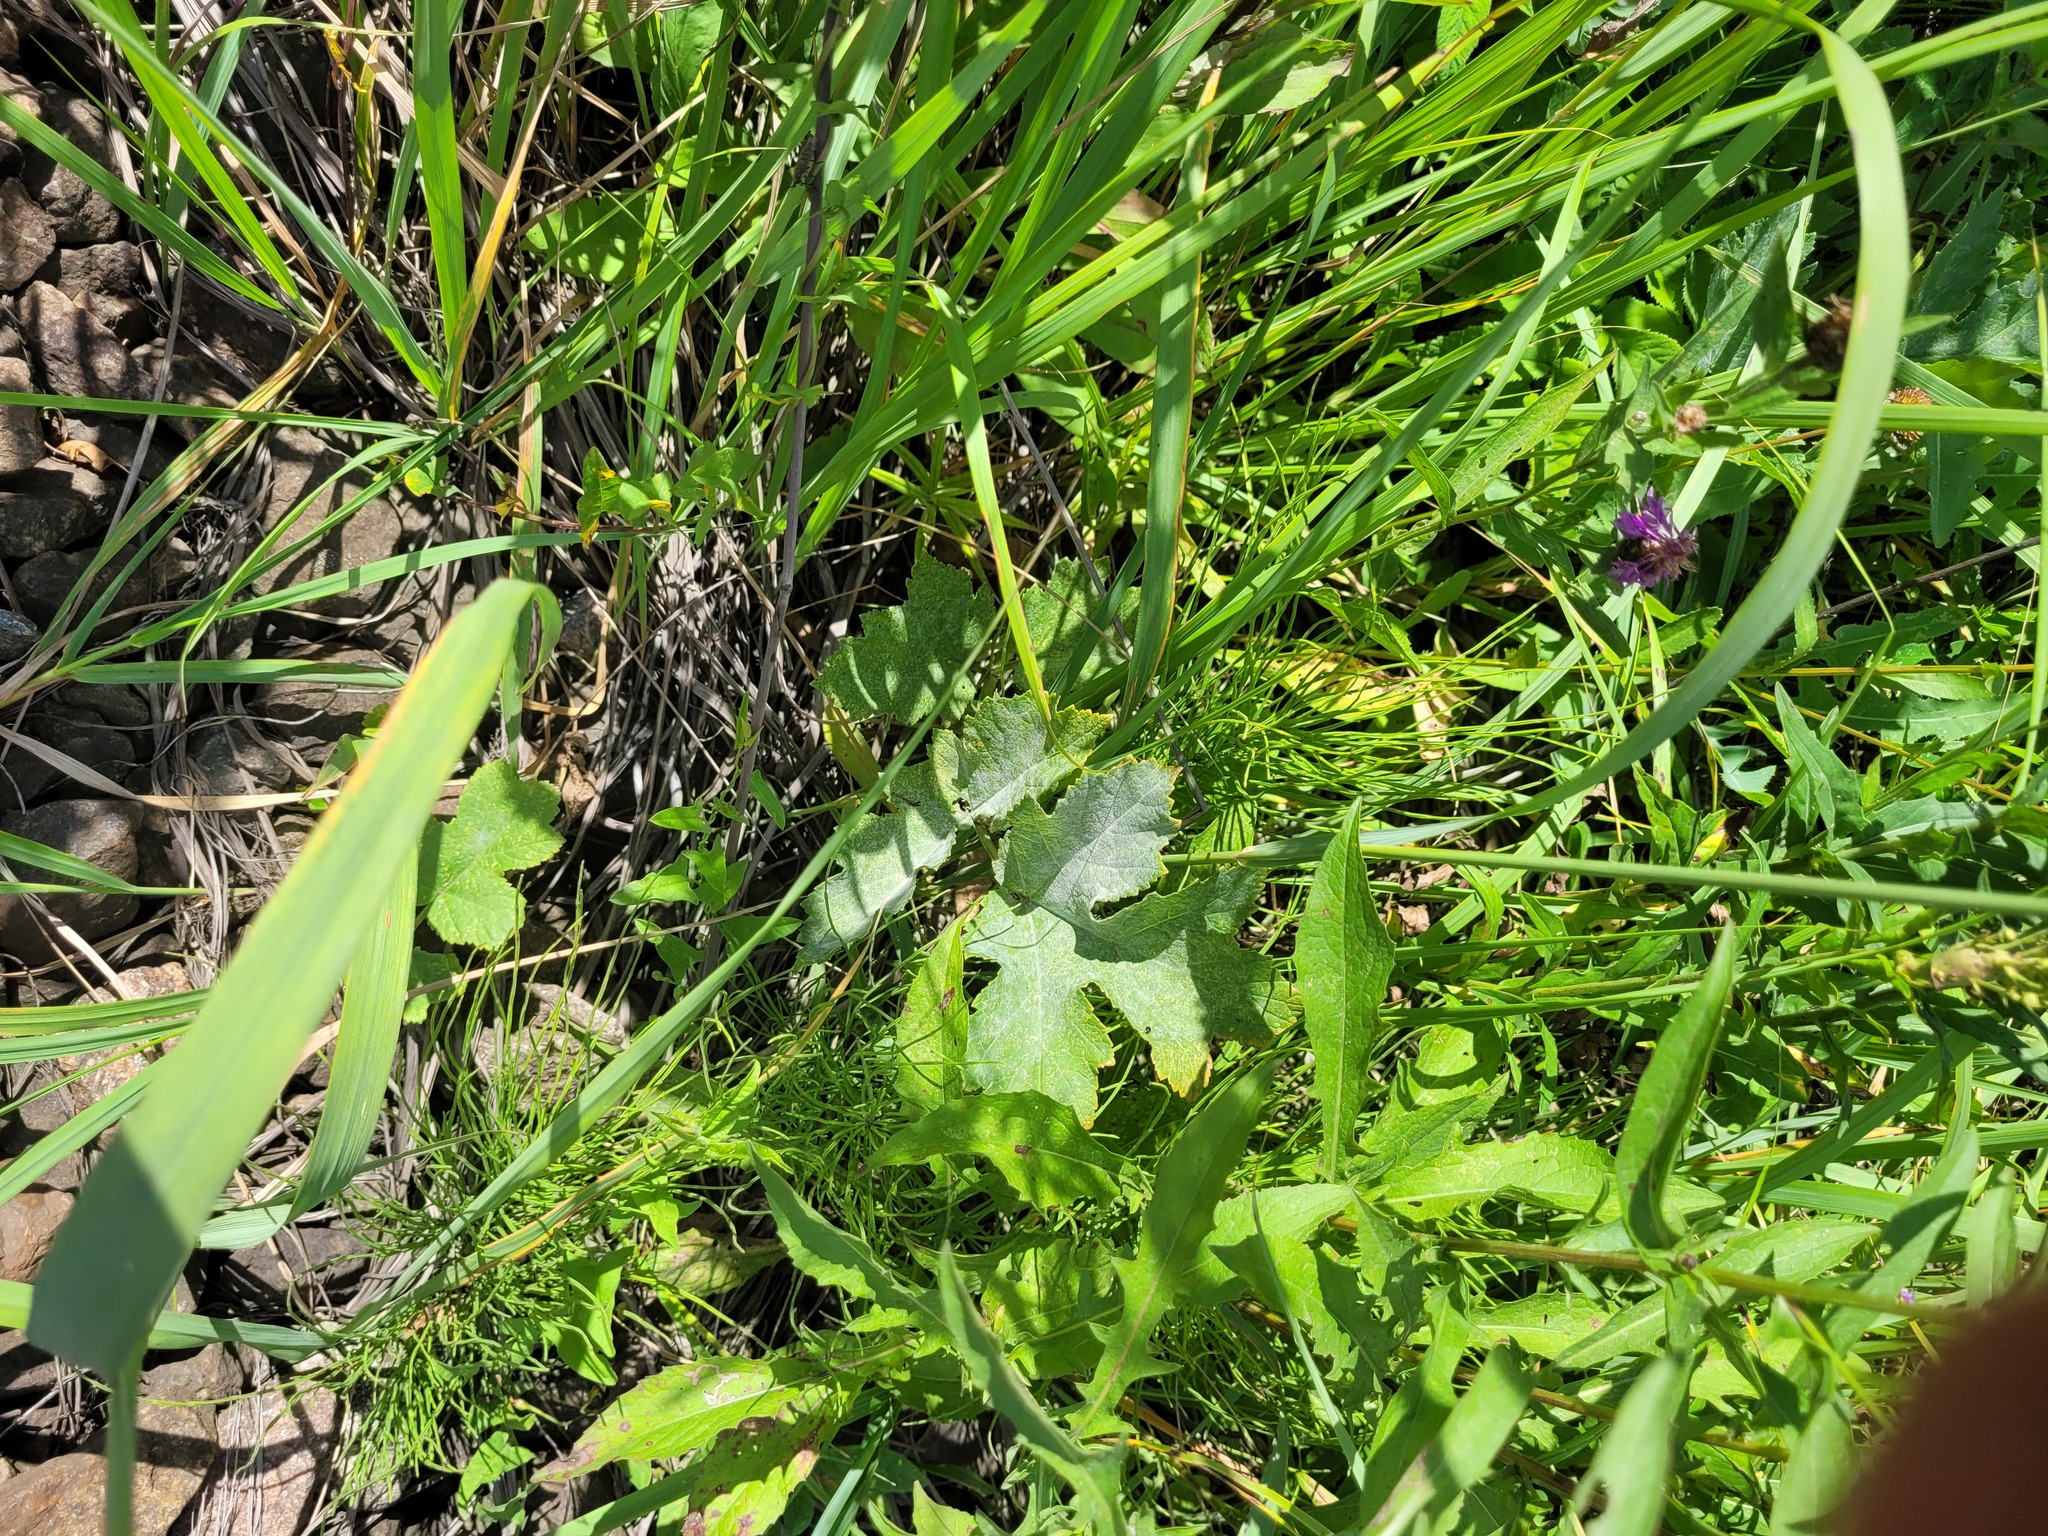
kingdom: Plantae
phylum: Tracheophyta
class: Magnoliopsida
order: Apiales
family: Apiaceae
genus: Heracleum
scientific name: Heracleum sphondylium
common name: Hogweed
